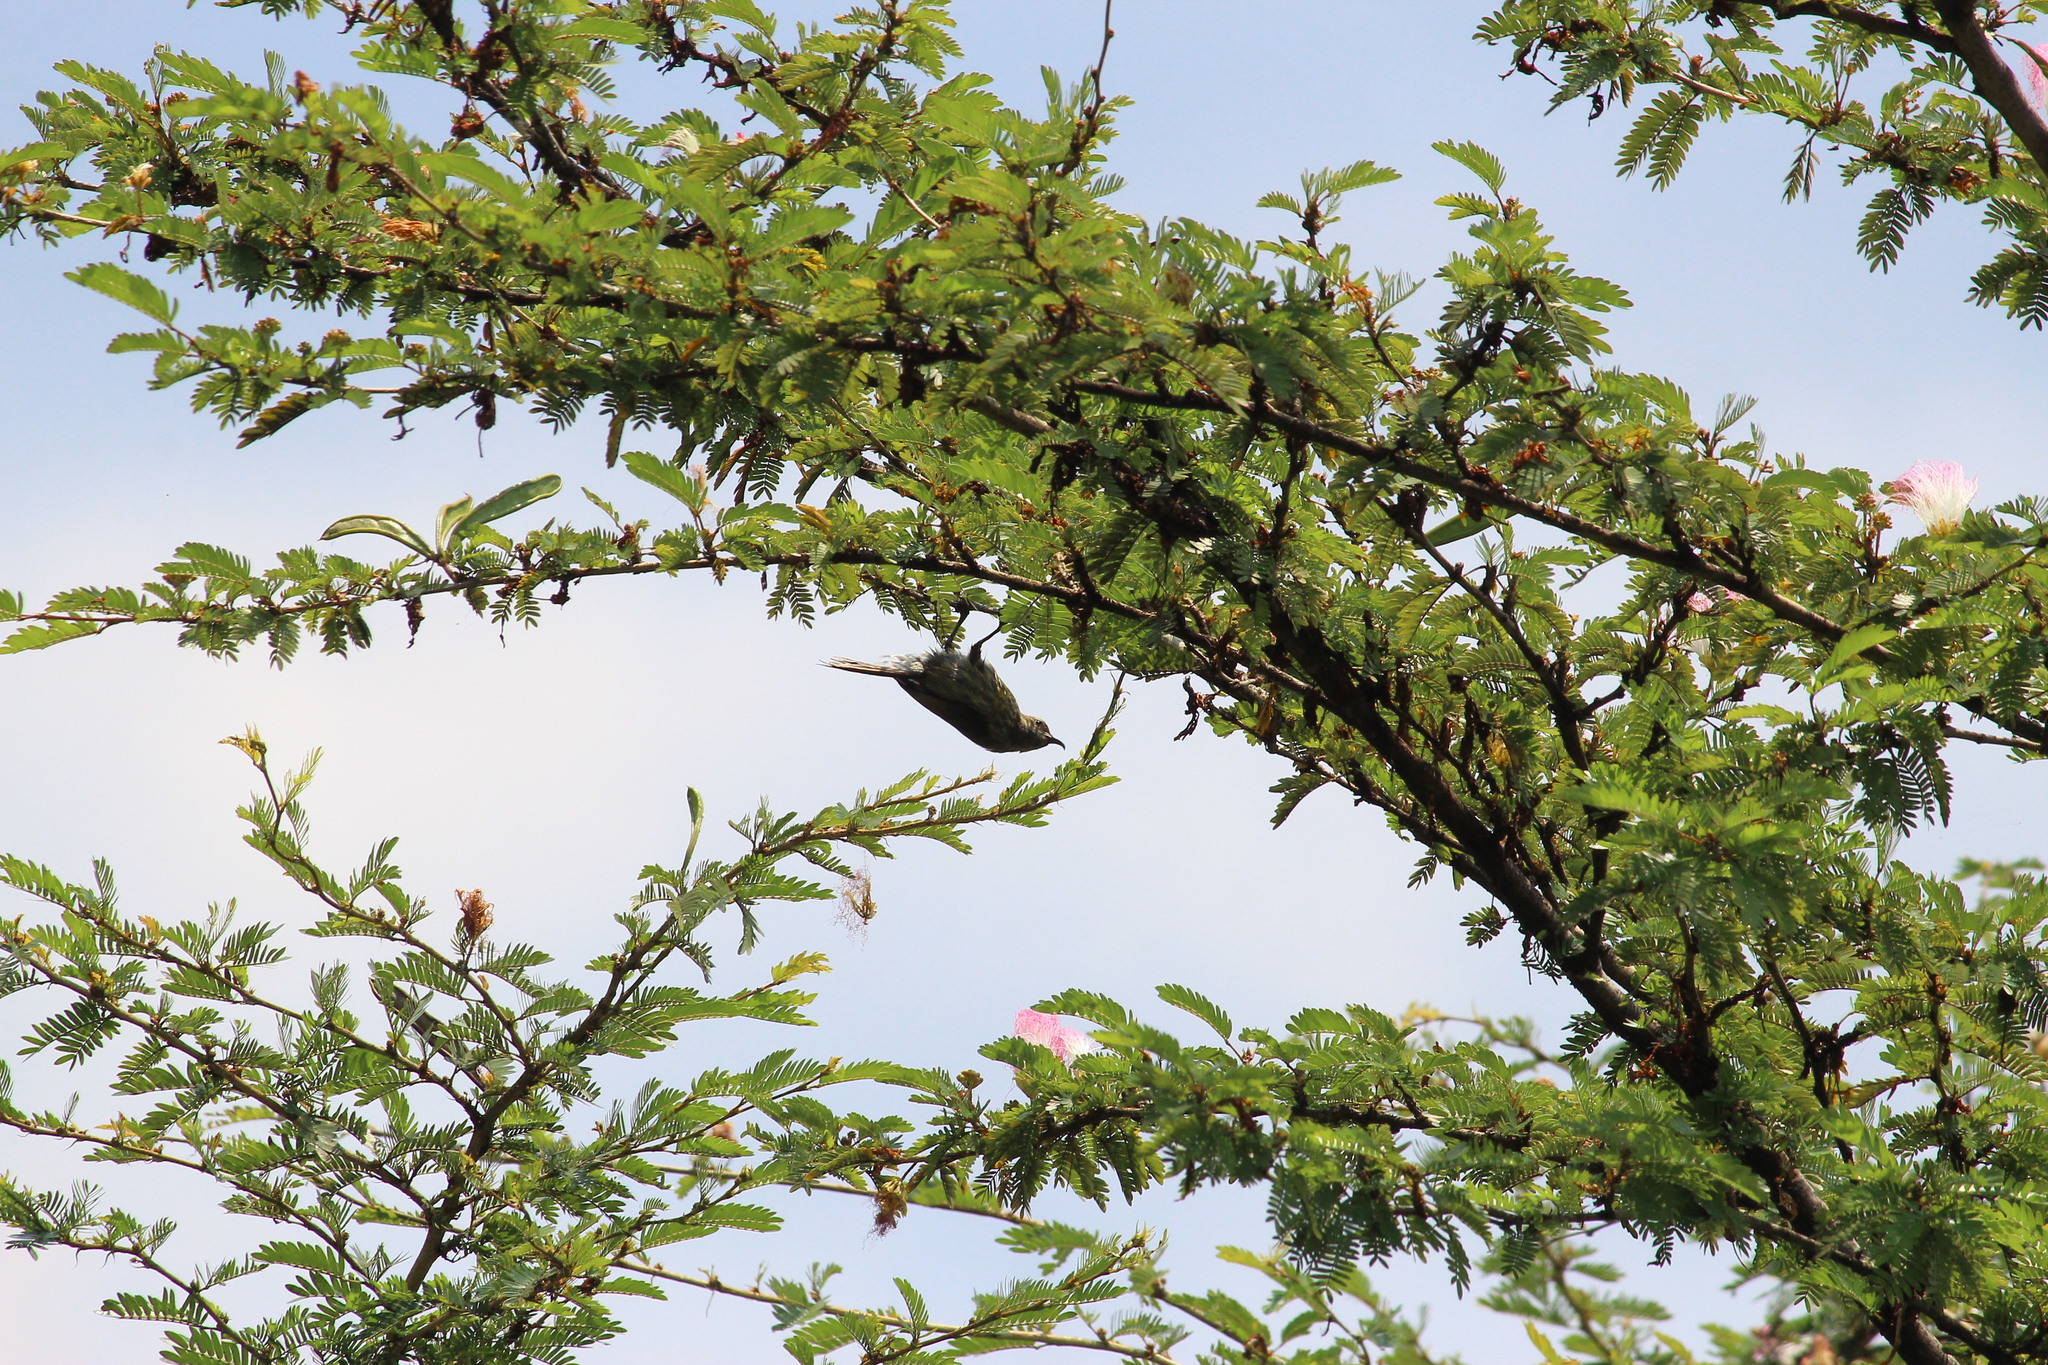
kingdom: Animalia
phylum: Chordata
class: Aves
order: Passeriformes
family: Nectariniidae
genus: Cinnyris
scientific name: Cinnyris erythrocercus
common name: Red-chested sunbird
